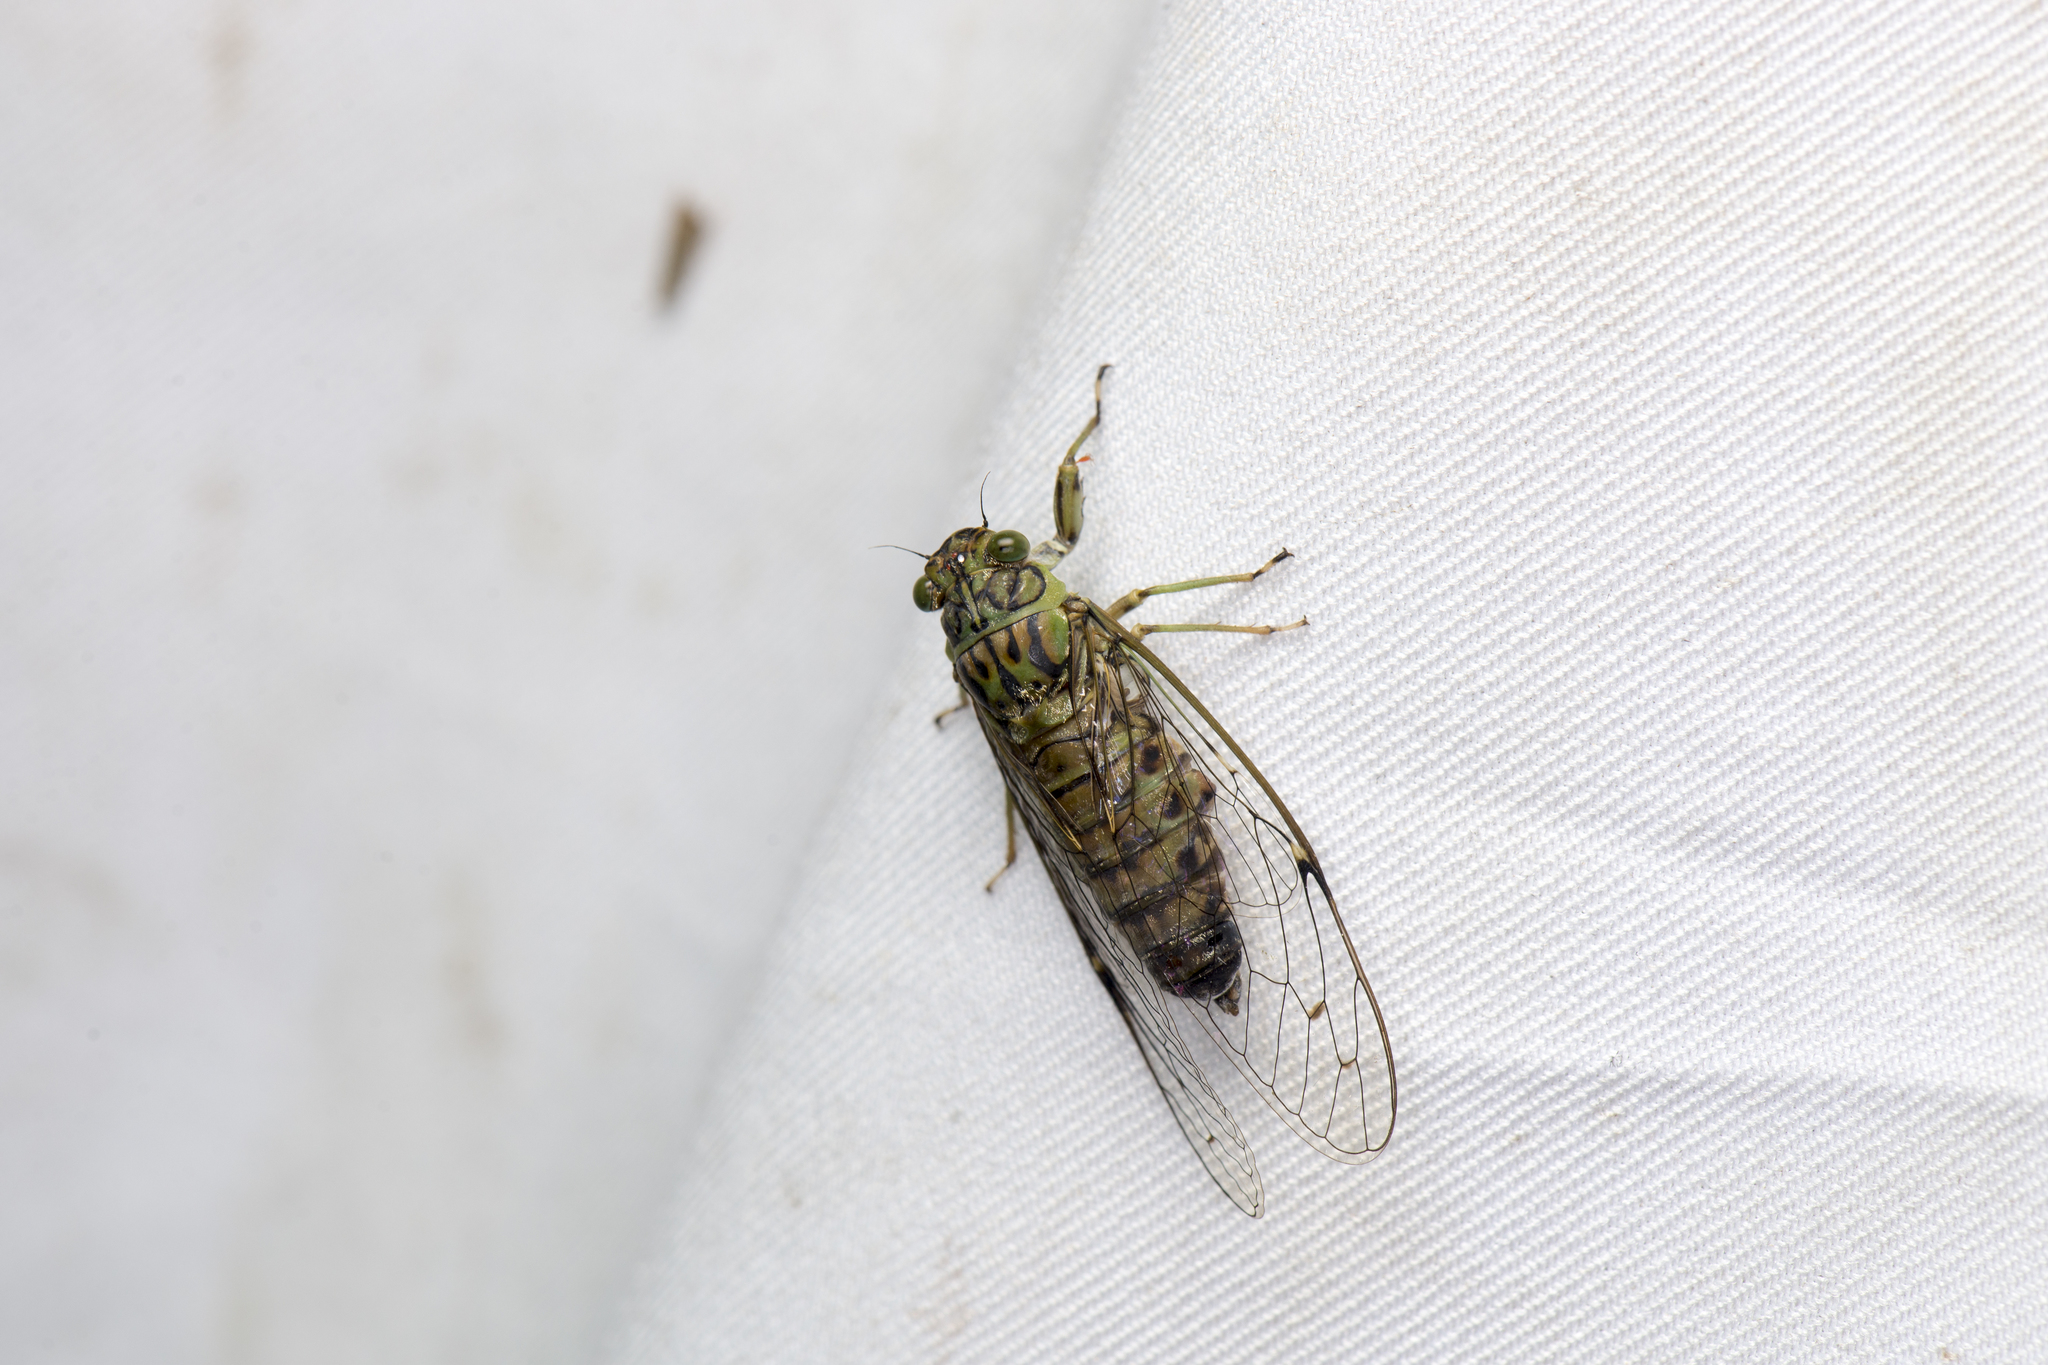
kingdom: Animalia
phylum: Arthropoda
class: Insecta
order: Hemiptera
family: Cicadidae
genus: Euterpnosia
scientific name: Euterpnosia olivacea
